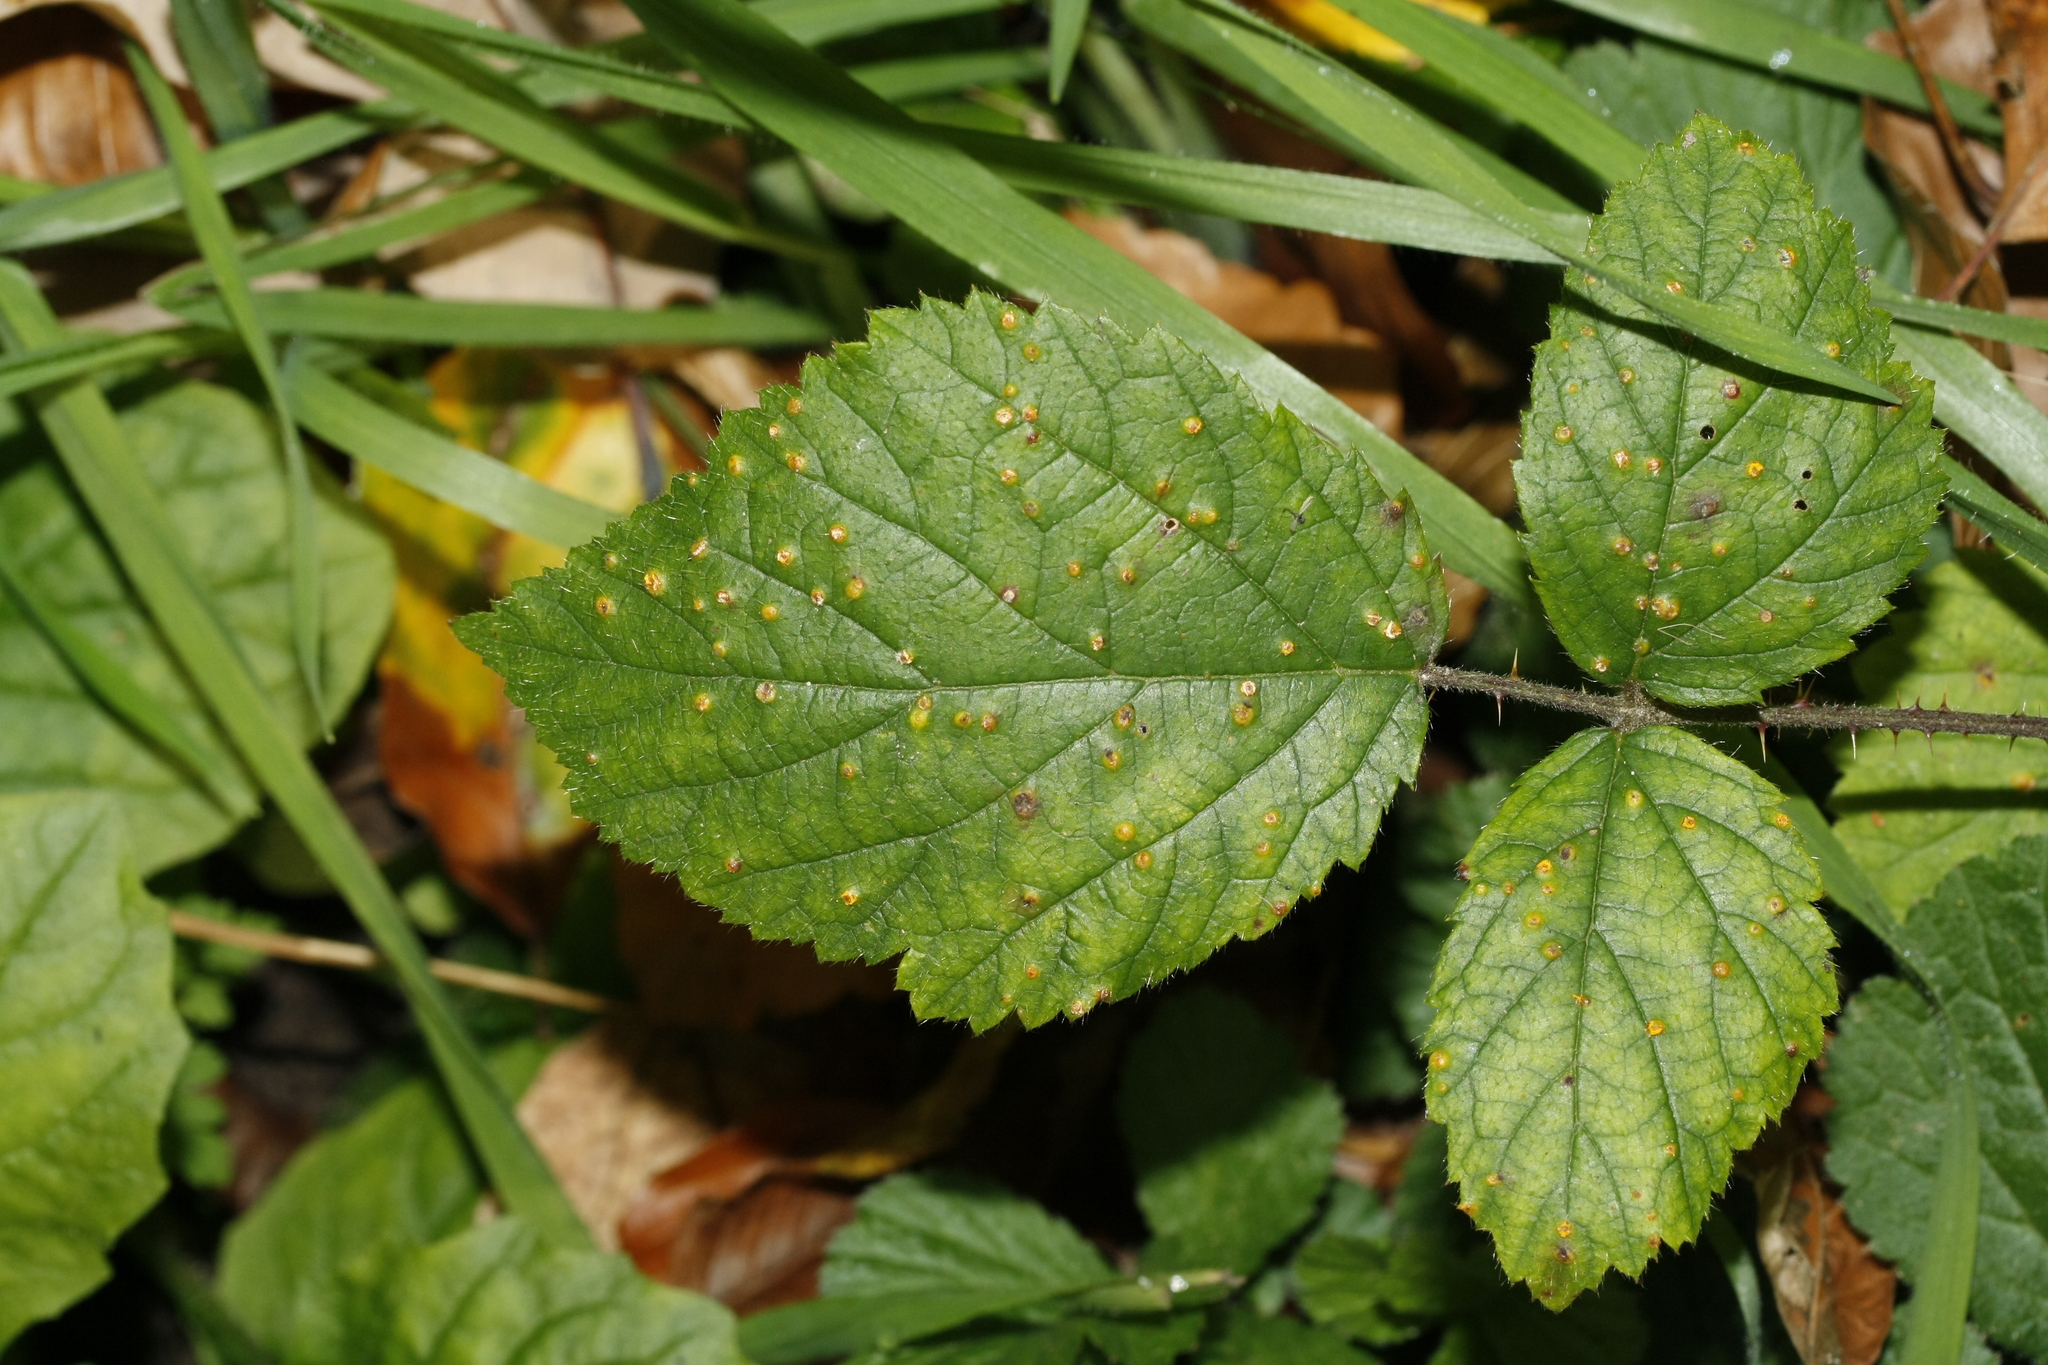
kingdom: Fungi
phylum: Basidiomycota
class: Pucciniomycetes
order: Pucciniales
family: Phragmidiaceae
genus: Kuehneola
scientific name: Kuehneola uredinis
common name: Bramble stem rust
